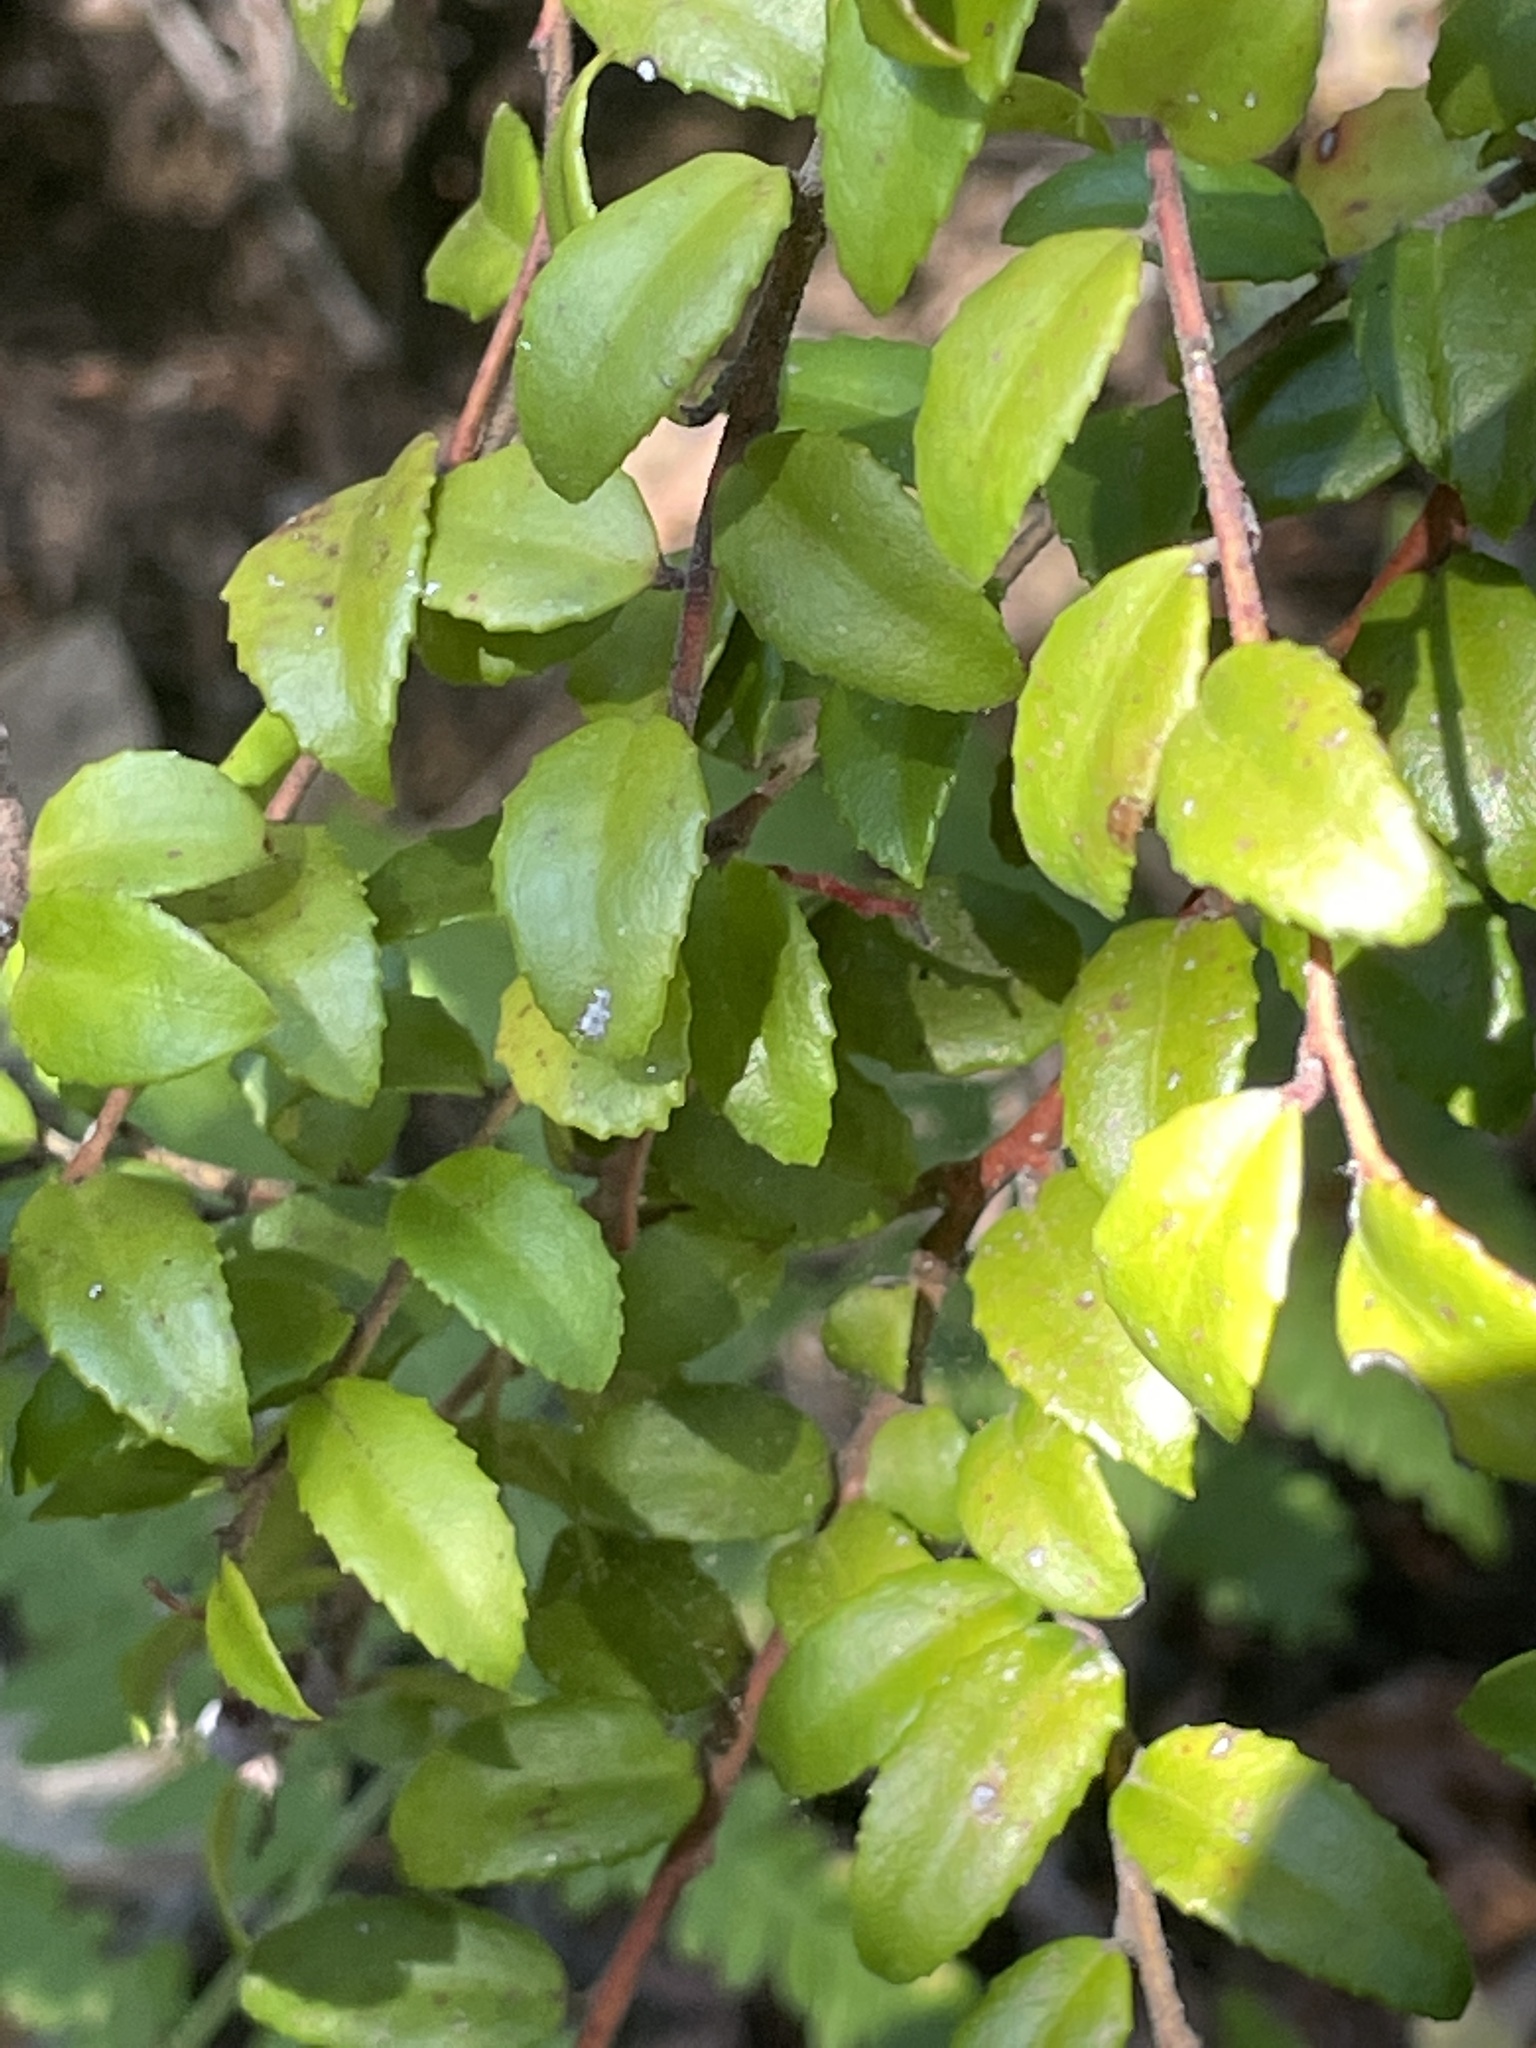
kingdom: Plantae
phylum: Tracheophyta
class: Magnoliopsida
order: Ericales
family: Ericaceae
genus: Vaccinium
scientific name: Vaccinium ovatum
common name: California-huckleberry
